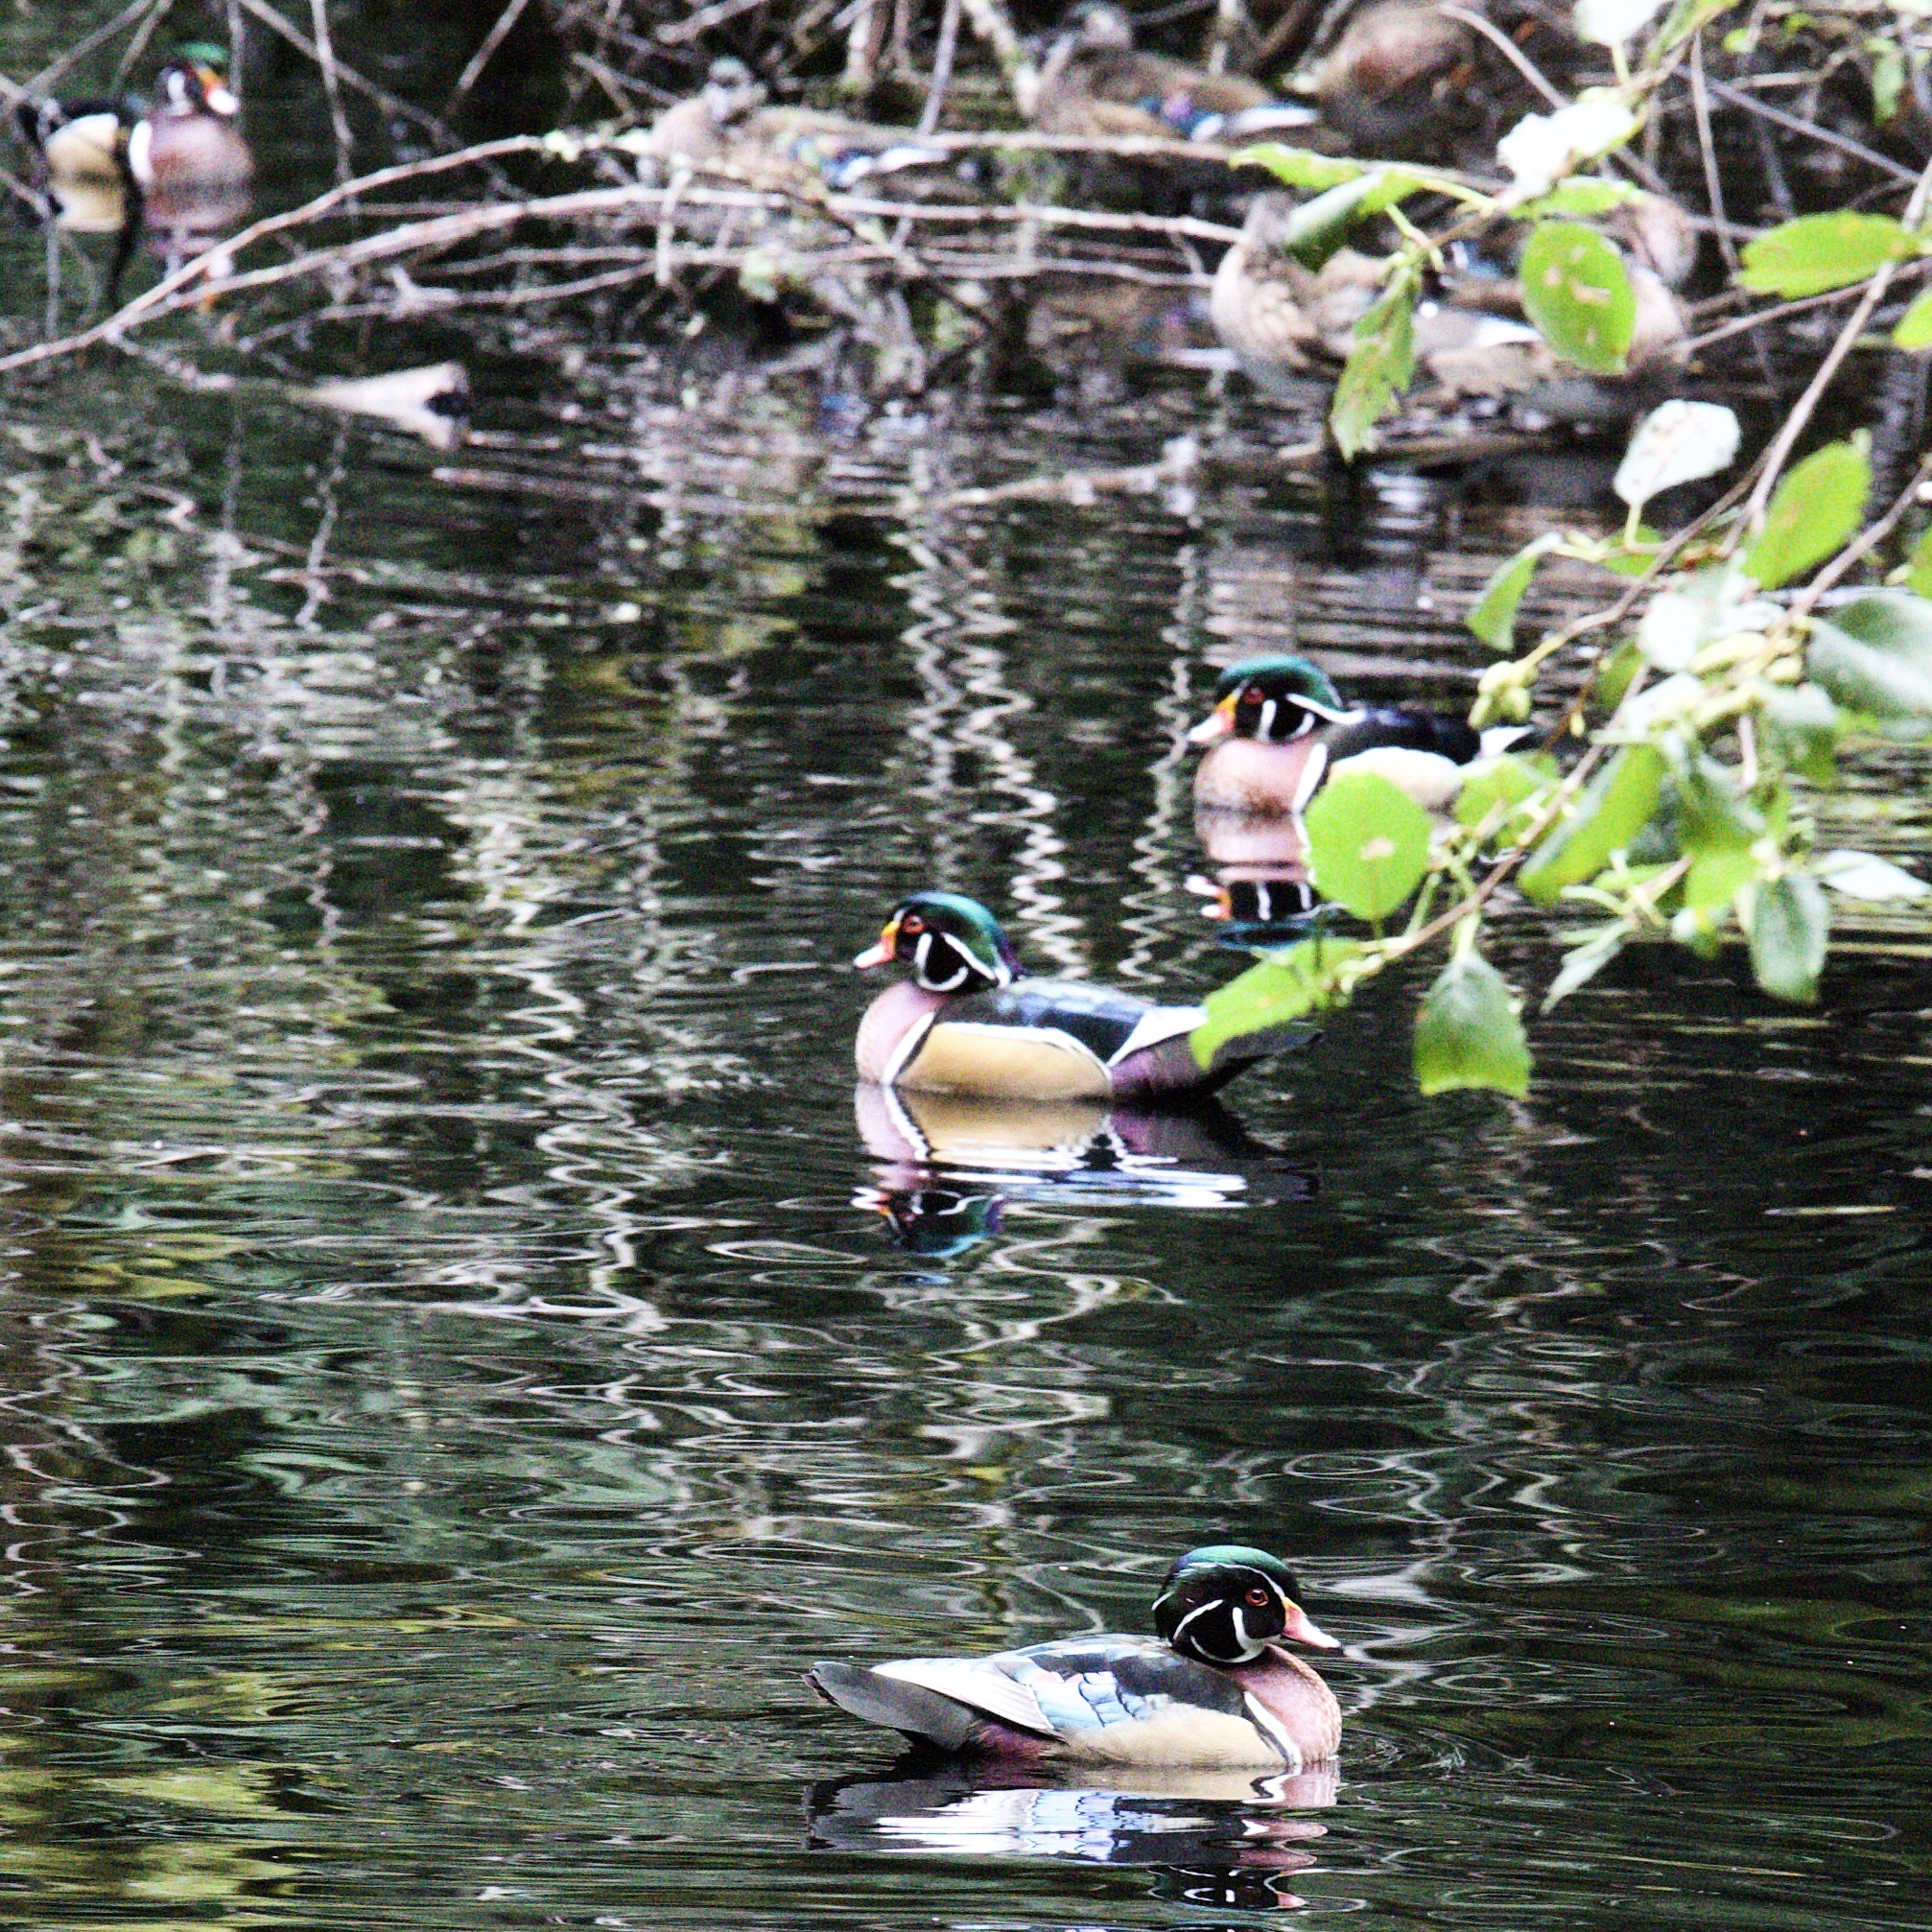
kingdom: Animalia
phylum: Chordata
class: Aves
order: Anseriformes
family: Anatidae
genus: Aix
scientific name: Aix sponsa
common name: Wood duck
